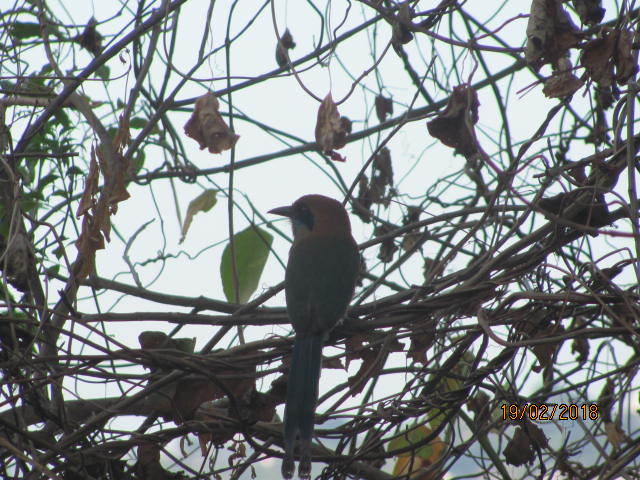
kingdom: Animalia
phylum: Chordata
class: Aves
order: Coraciiformes
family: Momotidae
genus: Momotus
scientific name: Momotus mexicanus
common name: Russet-crowned motmot
